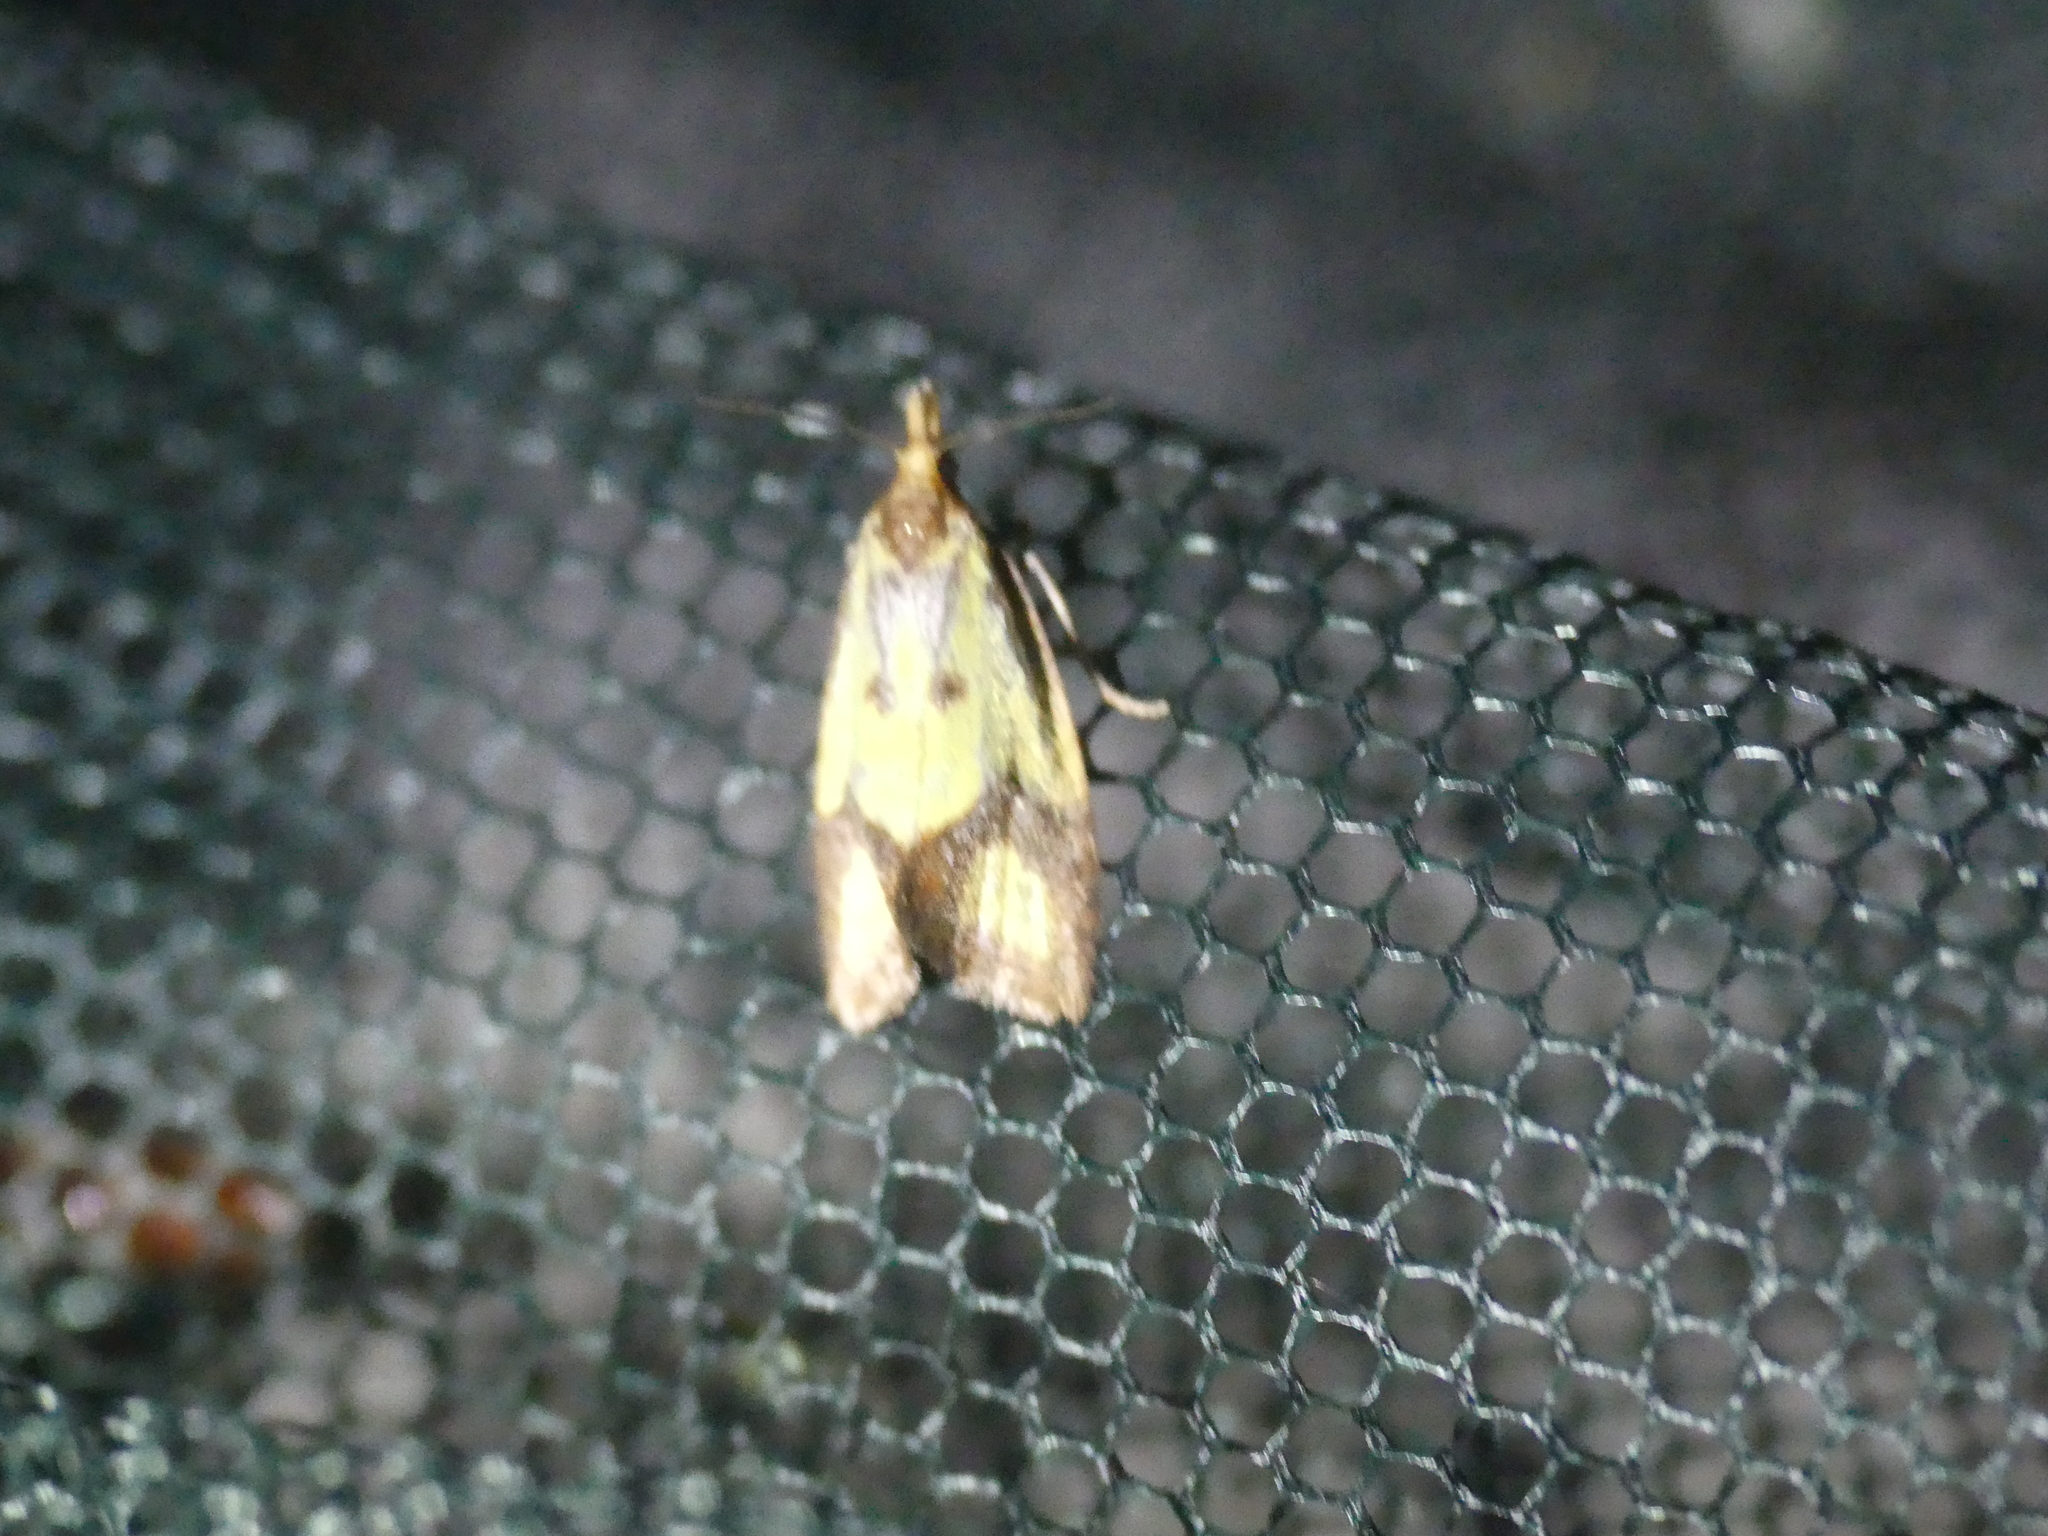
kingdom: Animalia
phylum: Arthropoda
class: Insecta
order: Lepidoptera
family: Tortricidae
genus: Agapeta
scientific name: Agapeta zoegana
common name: Sulfur knapweed root moth
